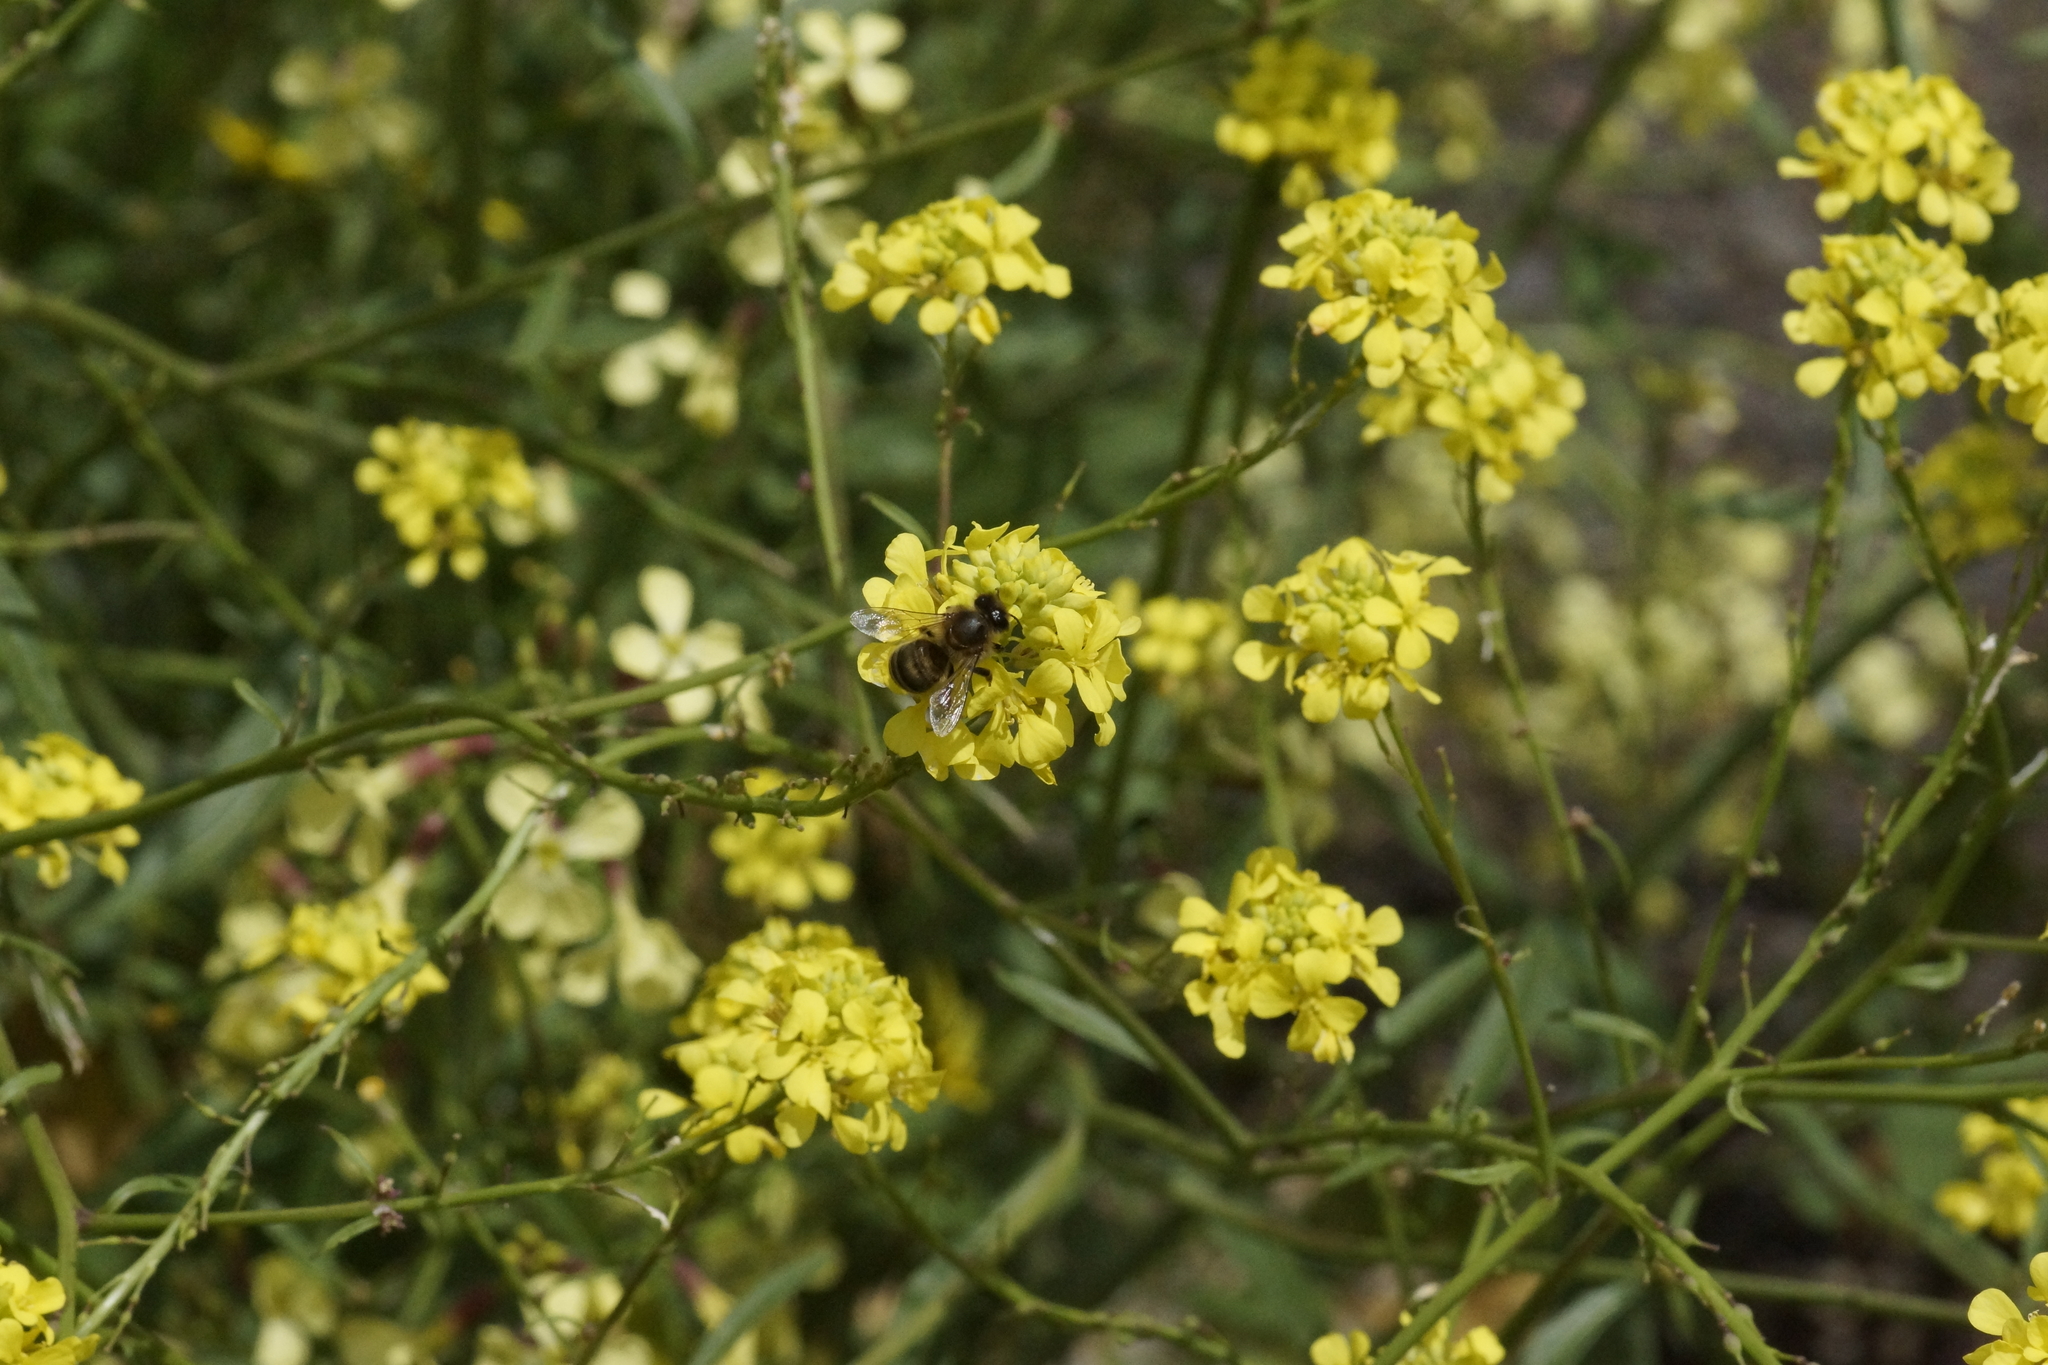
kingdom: Animalia
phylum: Arthropoda
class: Insecta
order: Hymenoptera
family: Apidae
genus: Apis
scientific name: Apis mellifera
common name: Honey bee
